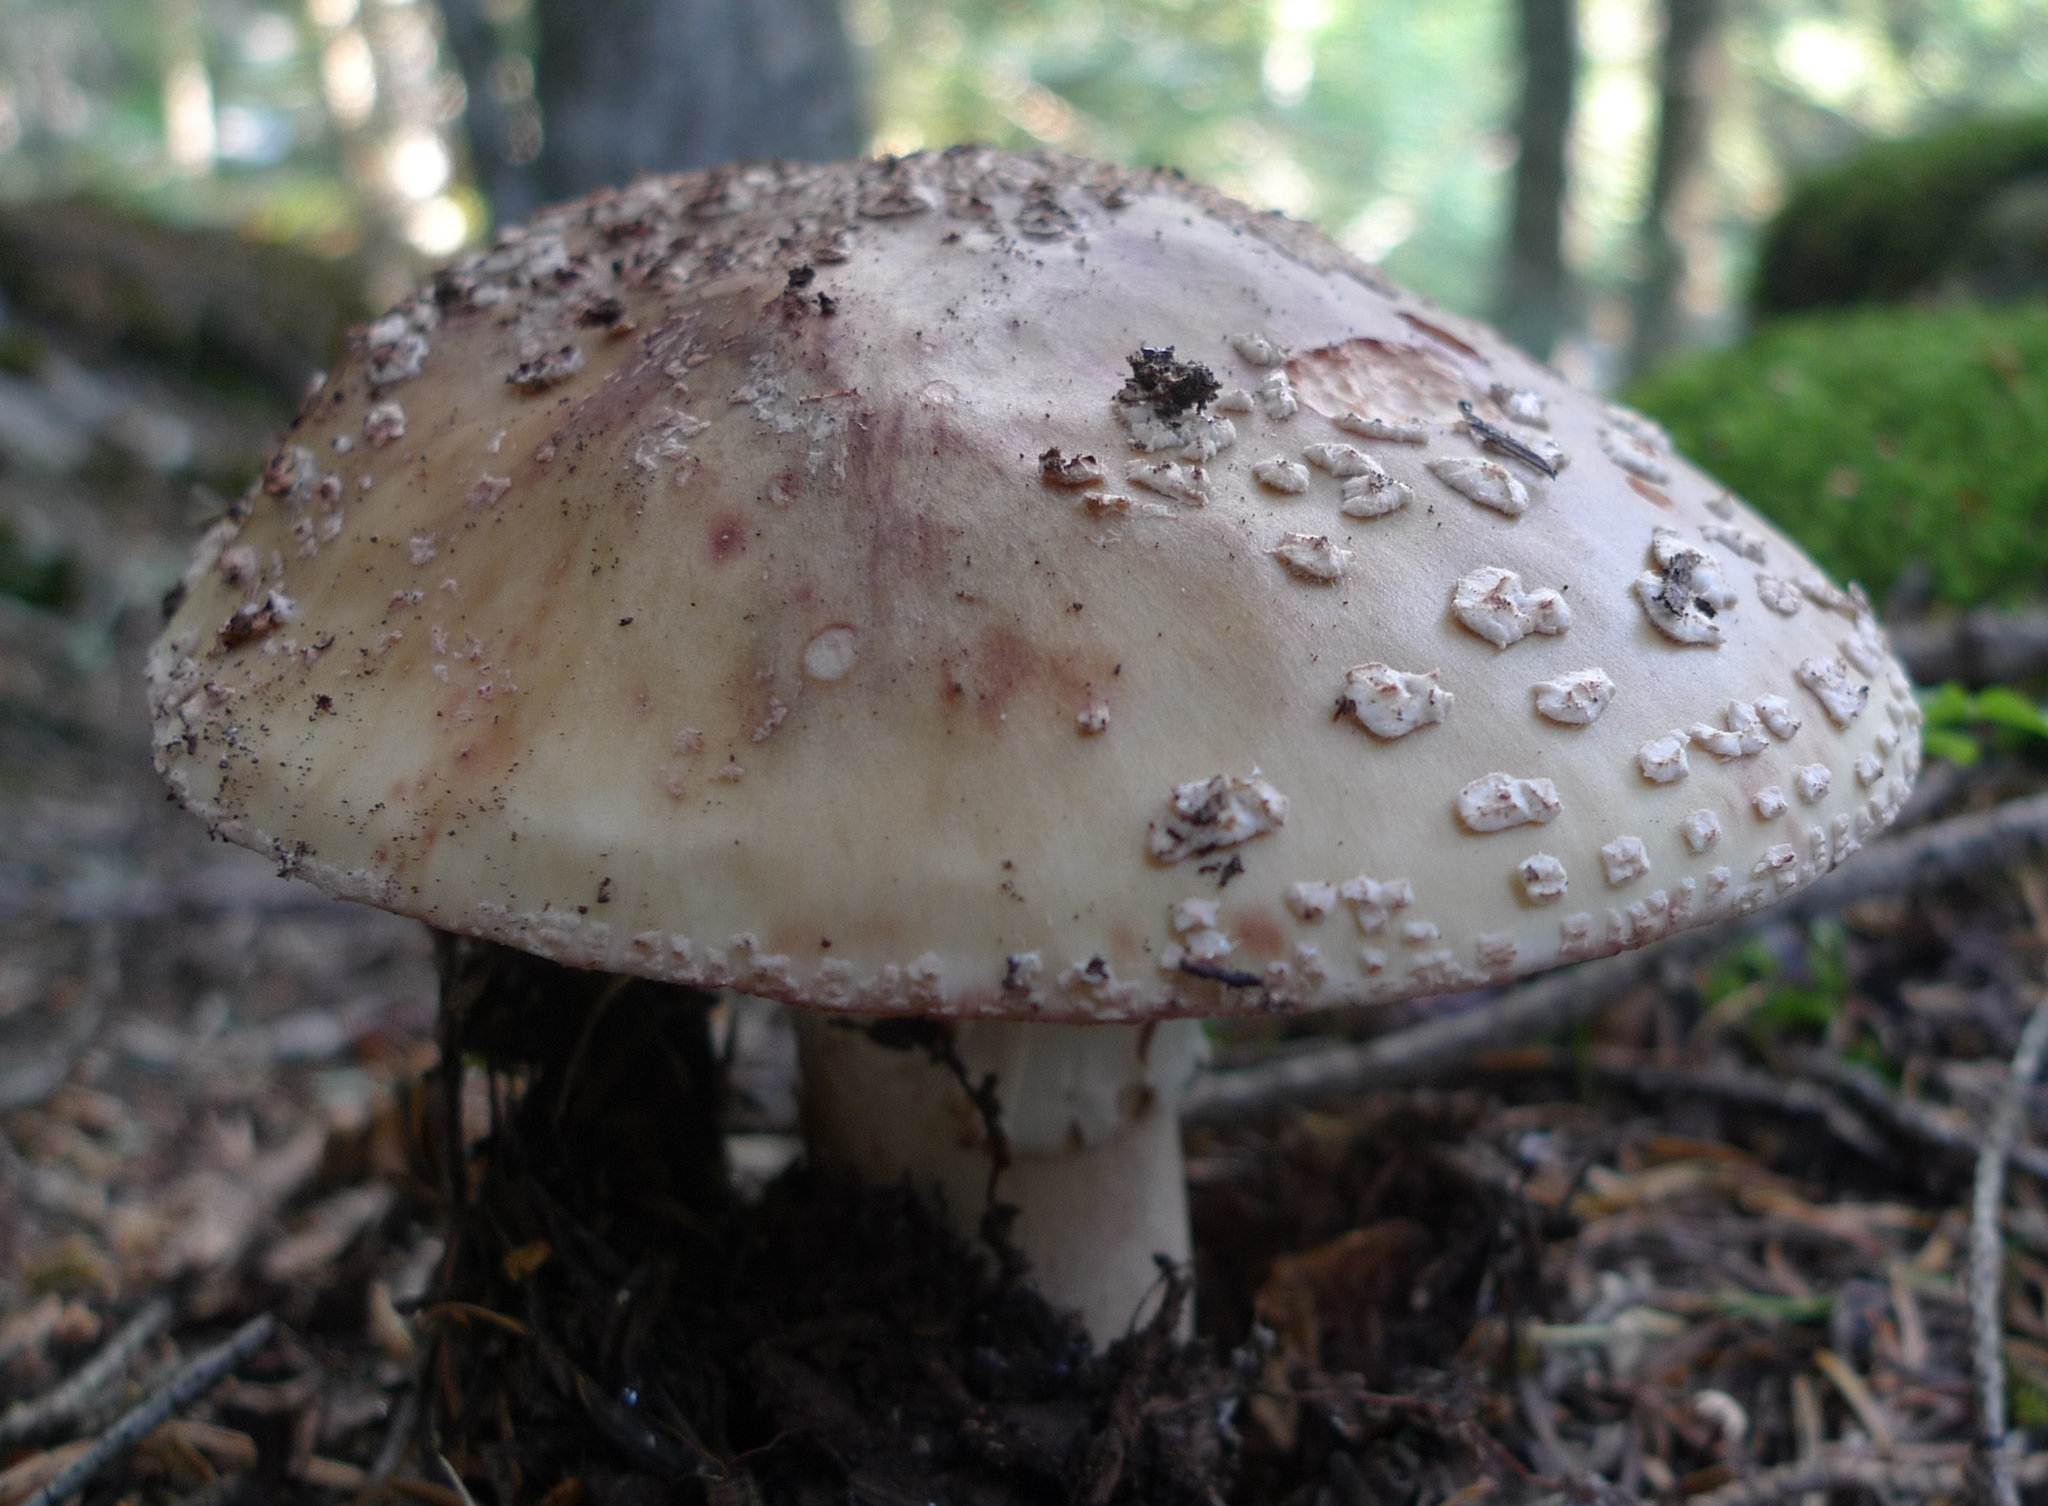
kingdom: Fungi
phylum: Basidiomycota
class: Agaricomycetes
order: Agaricales
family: Amanitaceae
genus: Amanita
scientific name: Amanita rubescens
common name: Blusher
